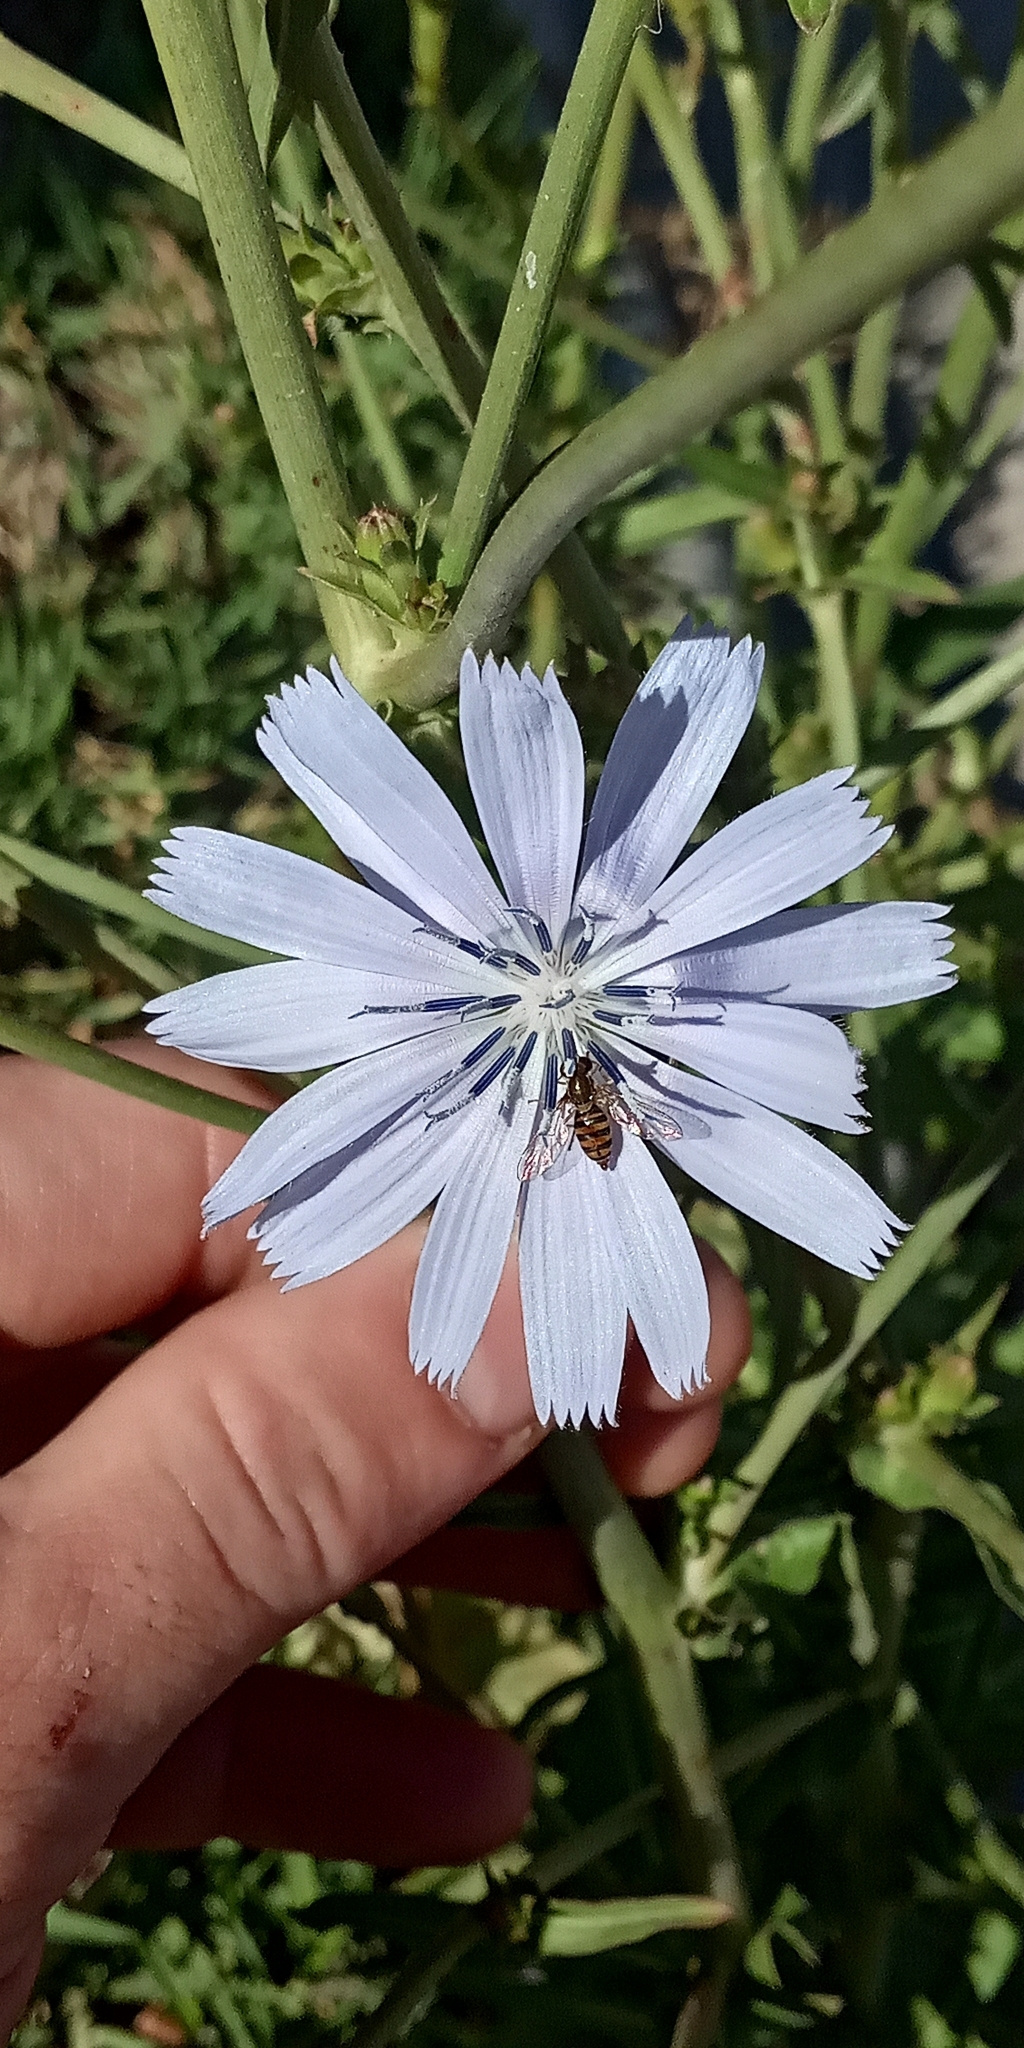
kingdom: Plantae
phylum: Tracheophyta
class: Magnoliopsida
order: Asterales
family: Asteraceae
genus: Cichorium
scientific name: Cichorium intybus
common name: Chicory
